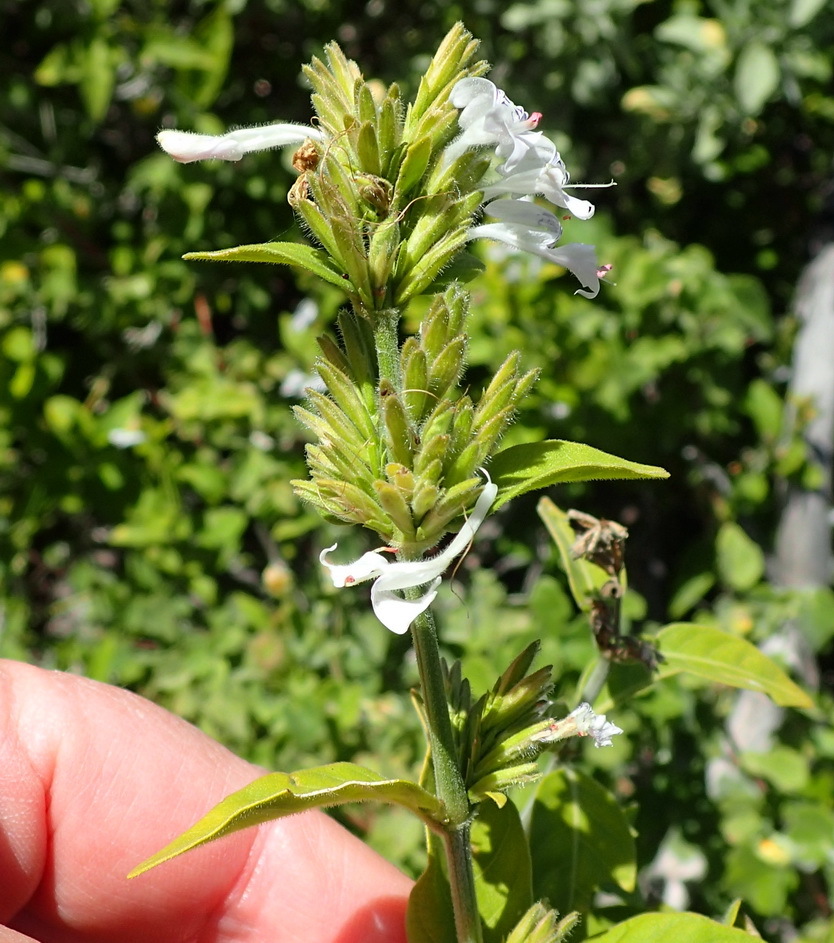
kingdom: Plantae
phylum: Tracheophyta
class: Magnoliopsida
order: Lamiales
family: Acanthaceae
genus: Hypoestes
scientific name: Hypoestes forskaolii
